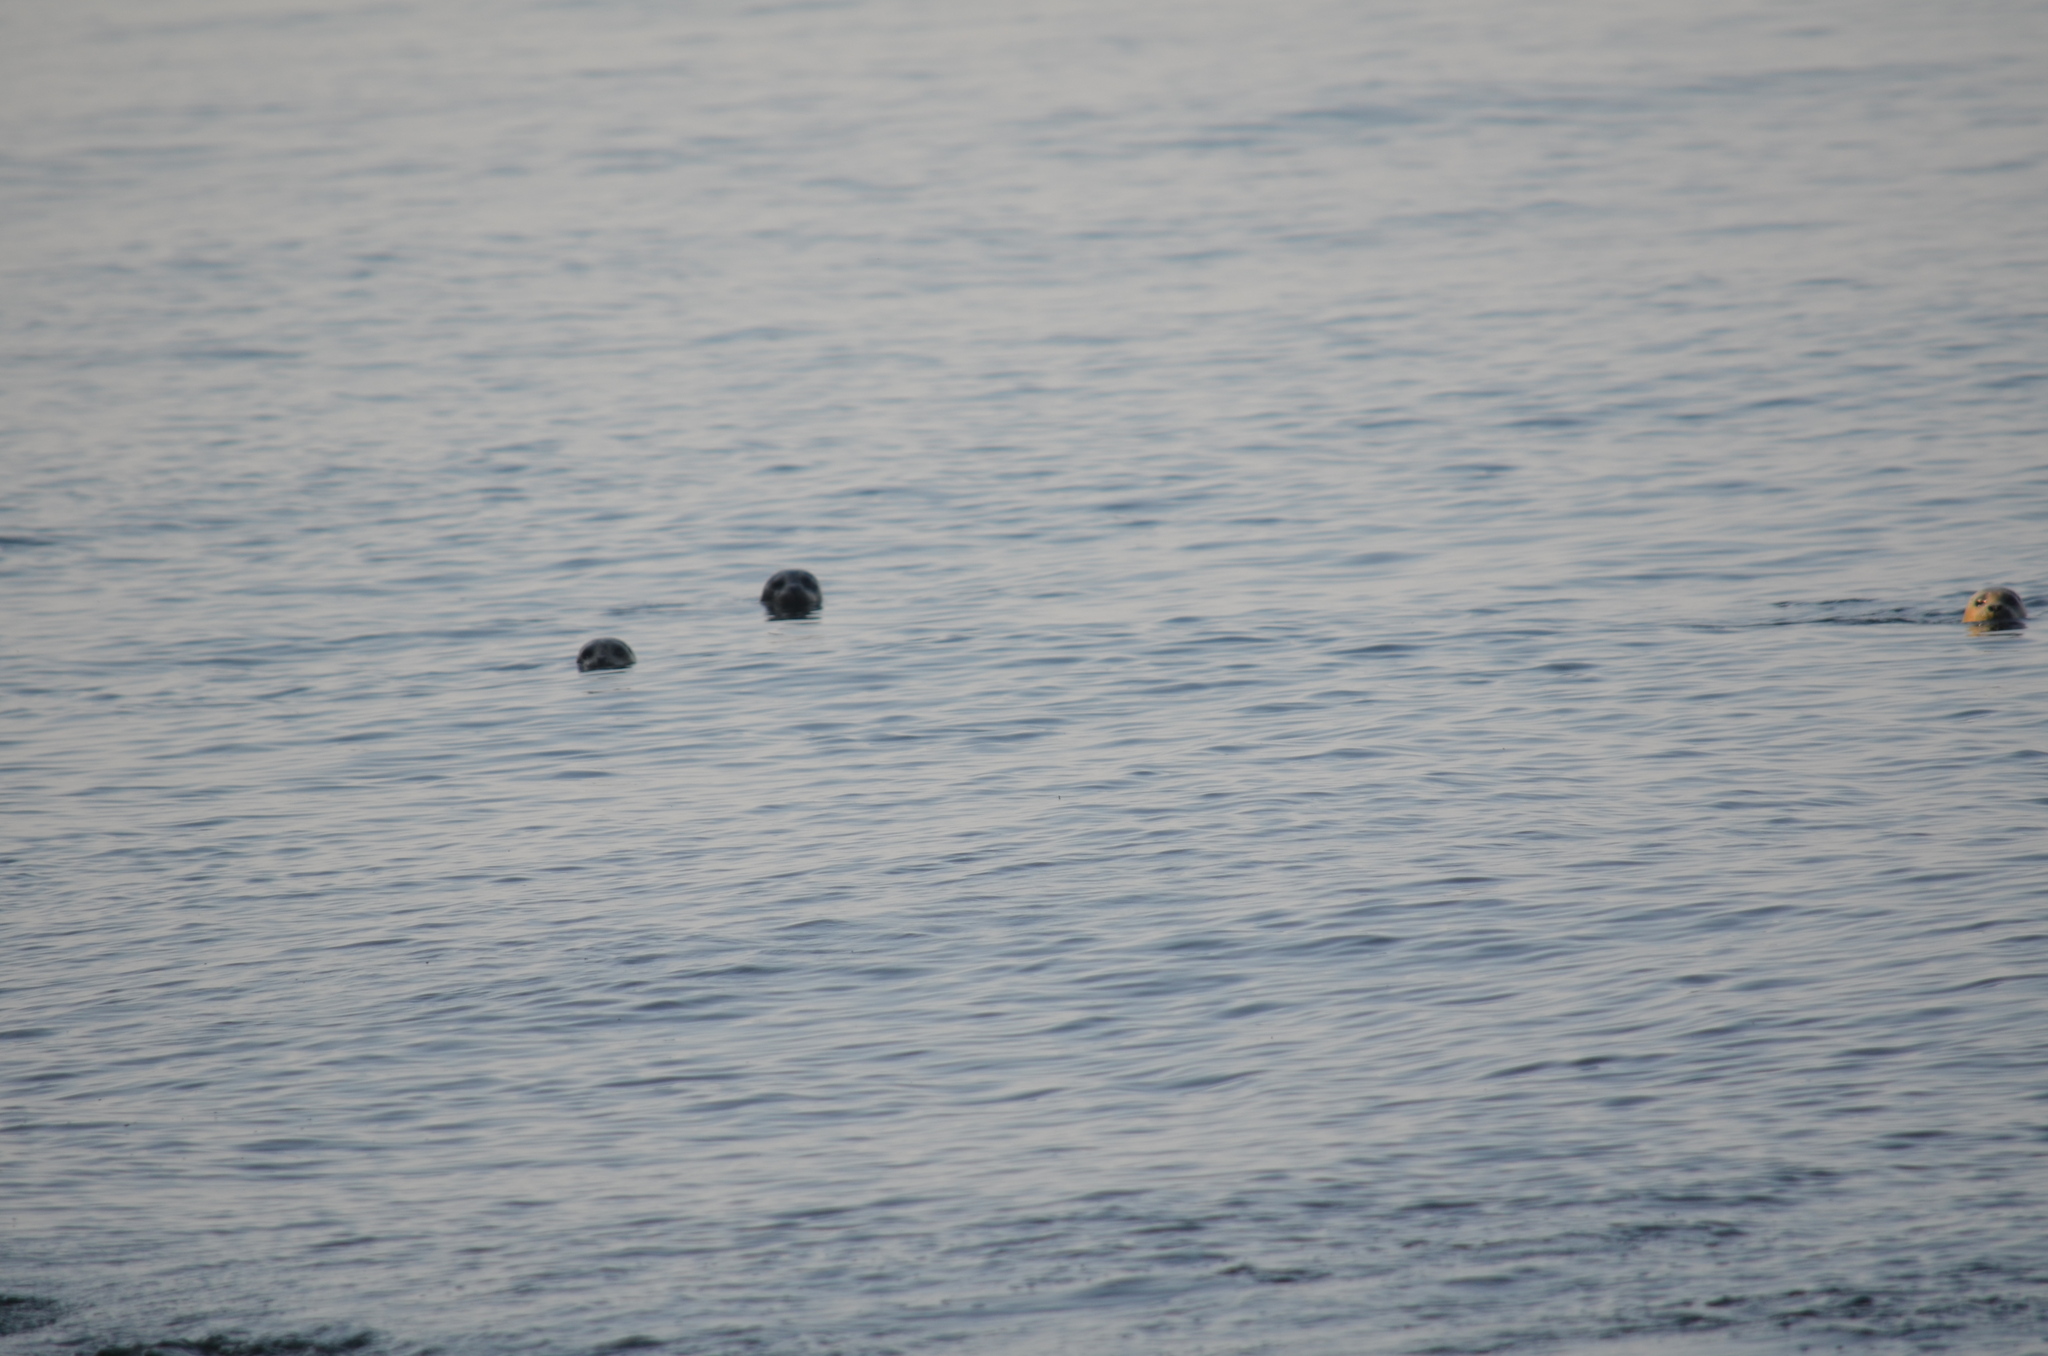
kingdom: Animalia
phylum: Chordata
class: Mammalia
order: Carnivora
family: Phocidae
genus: Phoca
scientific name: Phoca vitulina
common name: Harbor seal
